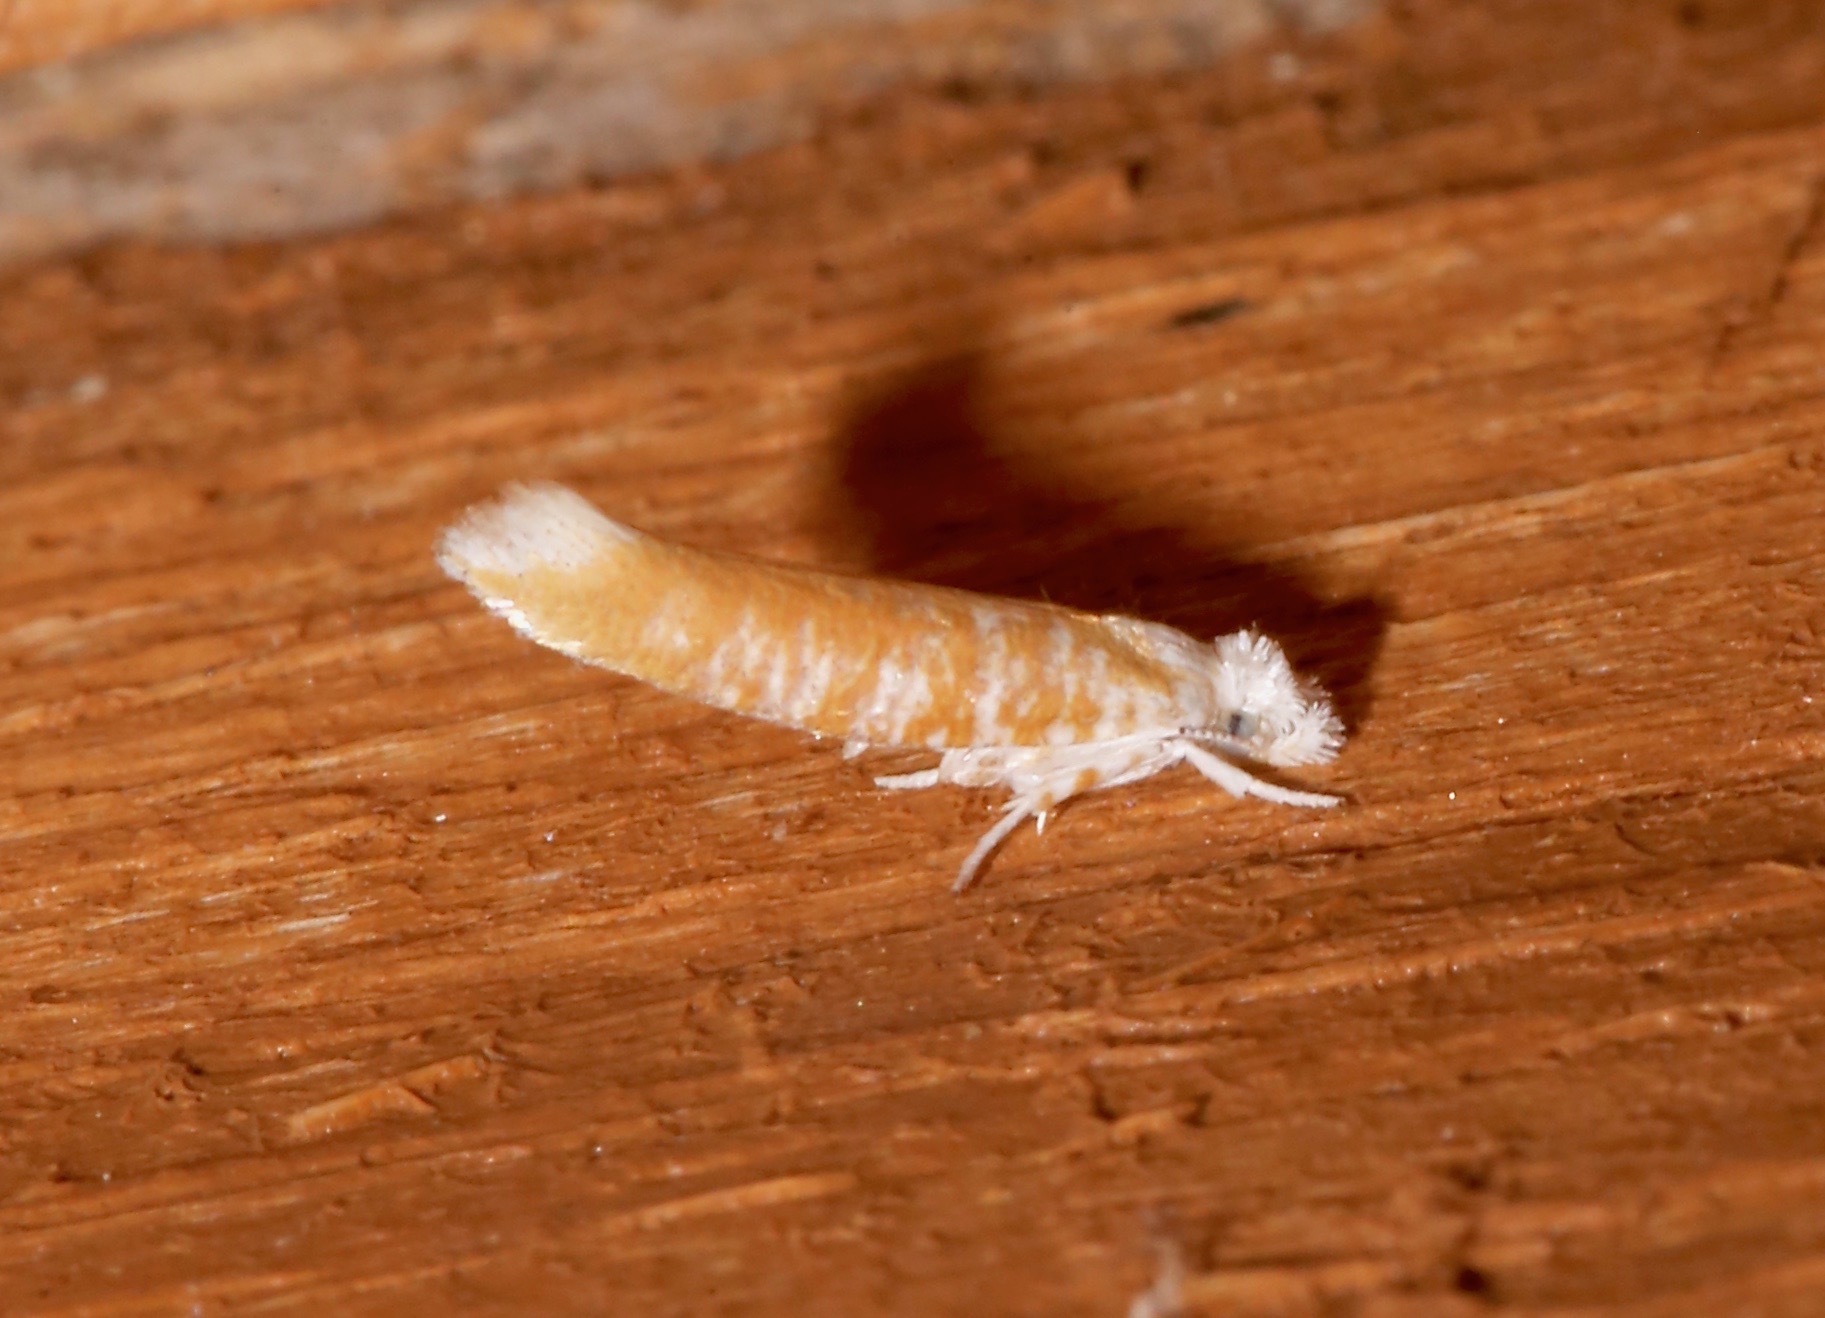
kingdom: Animalia
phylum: Arthropoda
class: Insecta
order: Lepidoptera
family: Yponomeutidae
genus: Zelleria
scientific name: Zelleria retiniella
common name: Brindled zelleria
